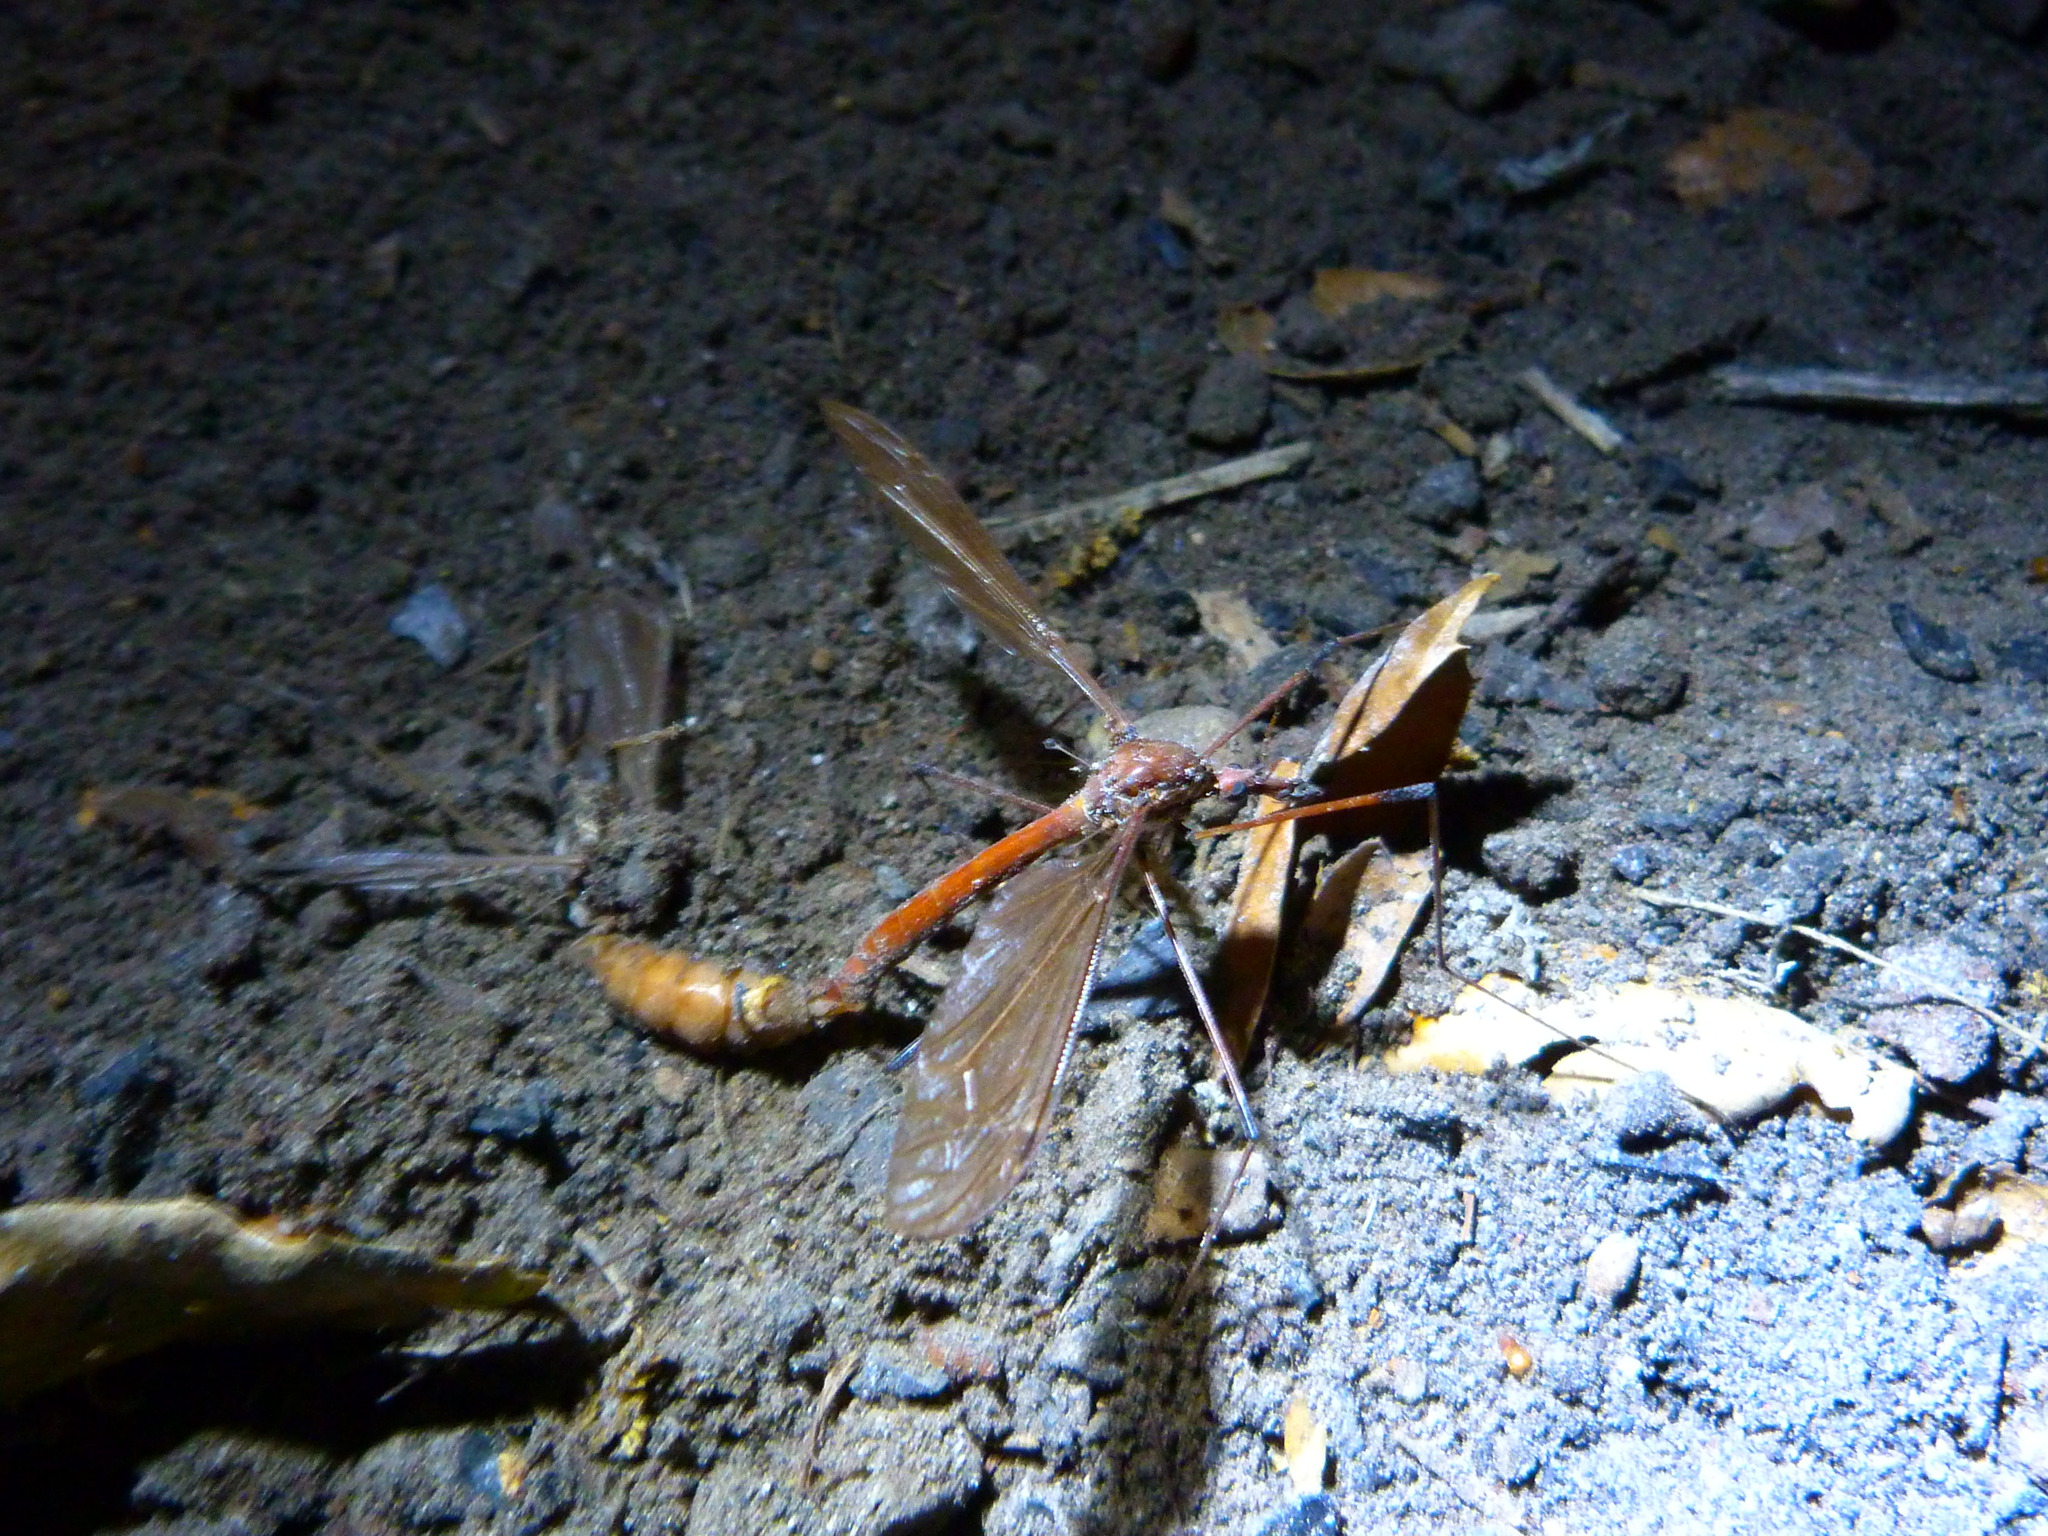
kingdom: Animalia
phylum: Arthropoda
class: Insecta
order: Diptera
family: Tipulidae
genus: Holorusia
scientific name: Holorusia hespera
